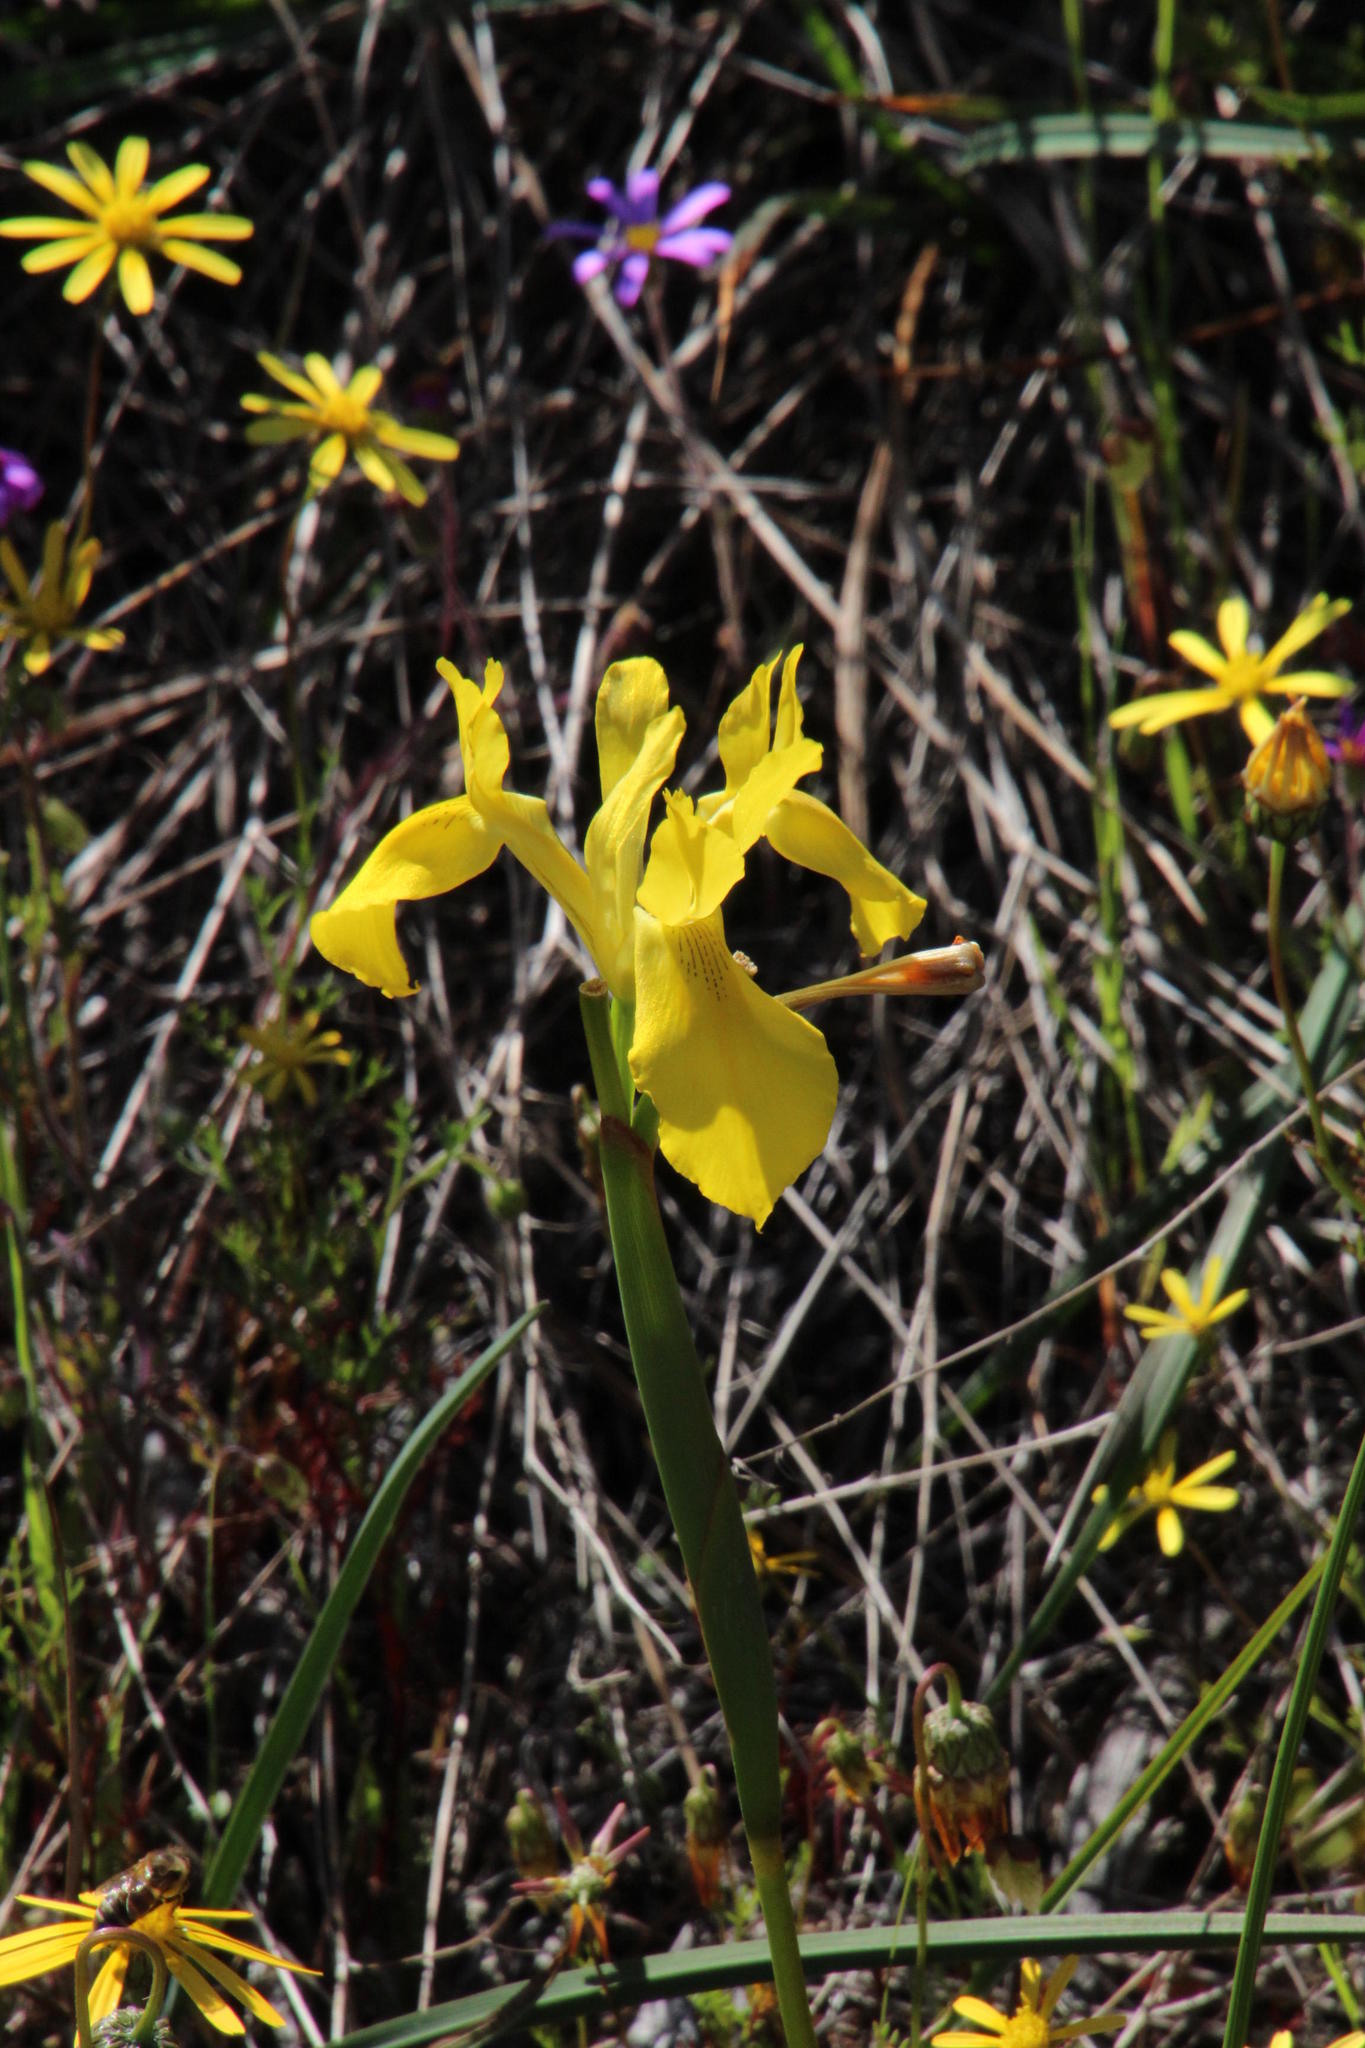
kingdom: Plantae
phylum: Tracheophyta
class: Liliopsida
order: Asparagales
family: Iridaceae
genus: Moraea
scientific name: Moraea neglecta
